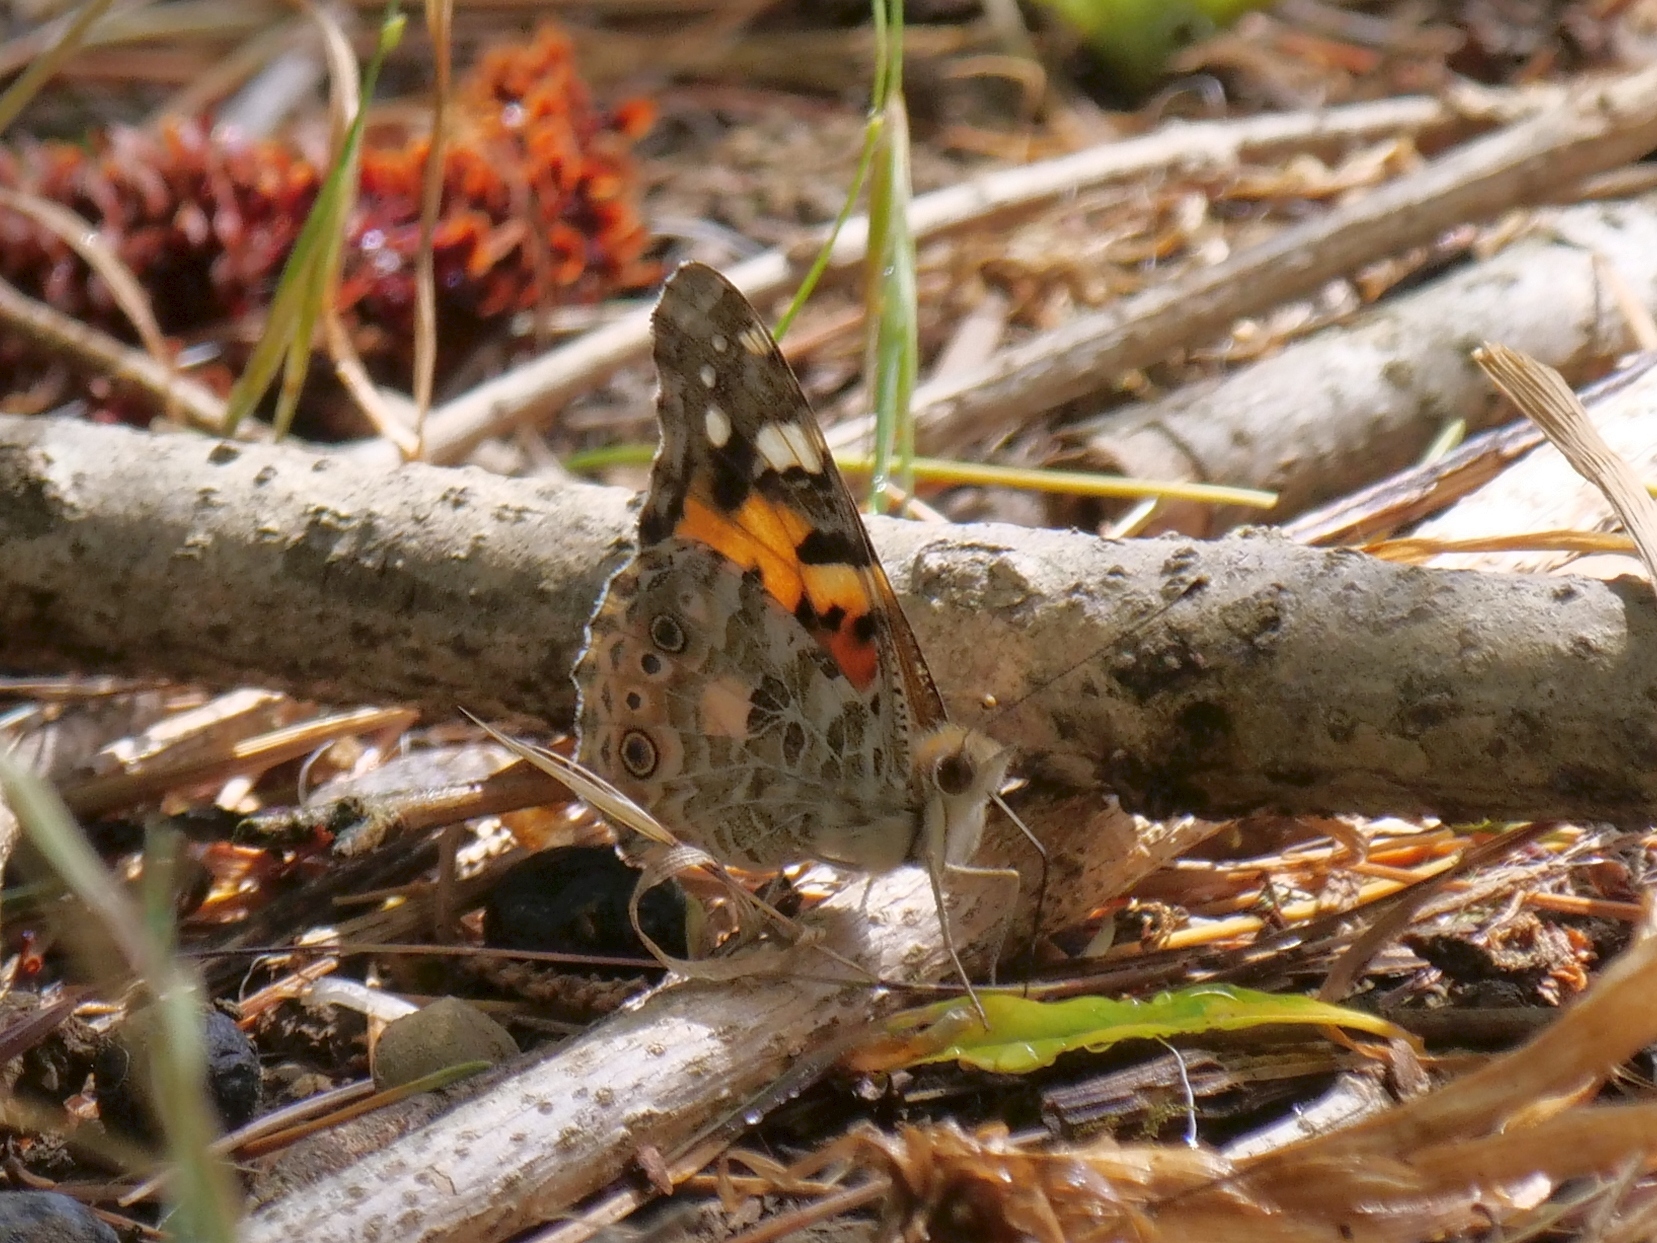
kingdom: Animalia
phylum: Arthropoda
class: Insecta
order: Lepidoptera
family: Nymphalidae
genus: Vanessa
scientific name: Vanessa cardui
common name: Painted lady
